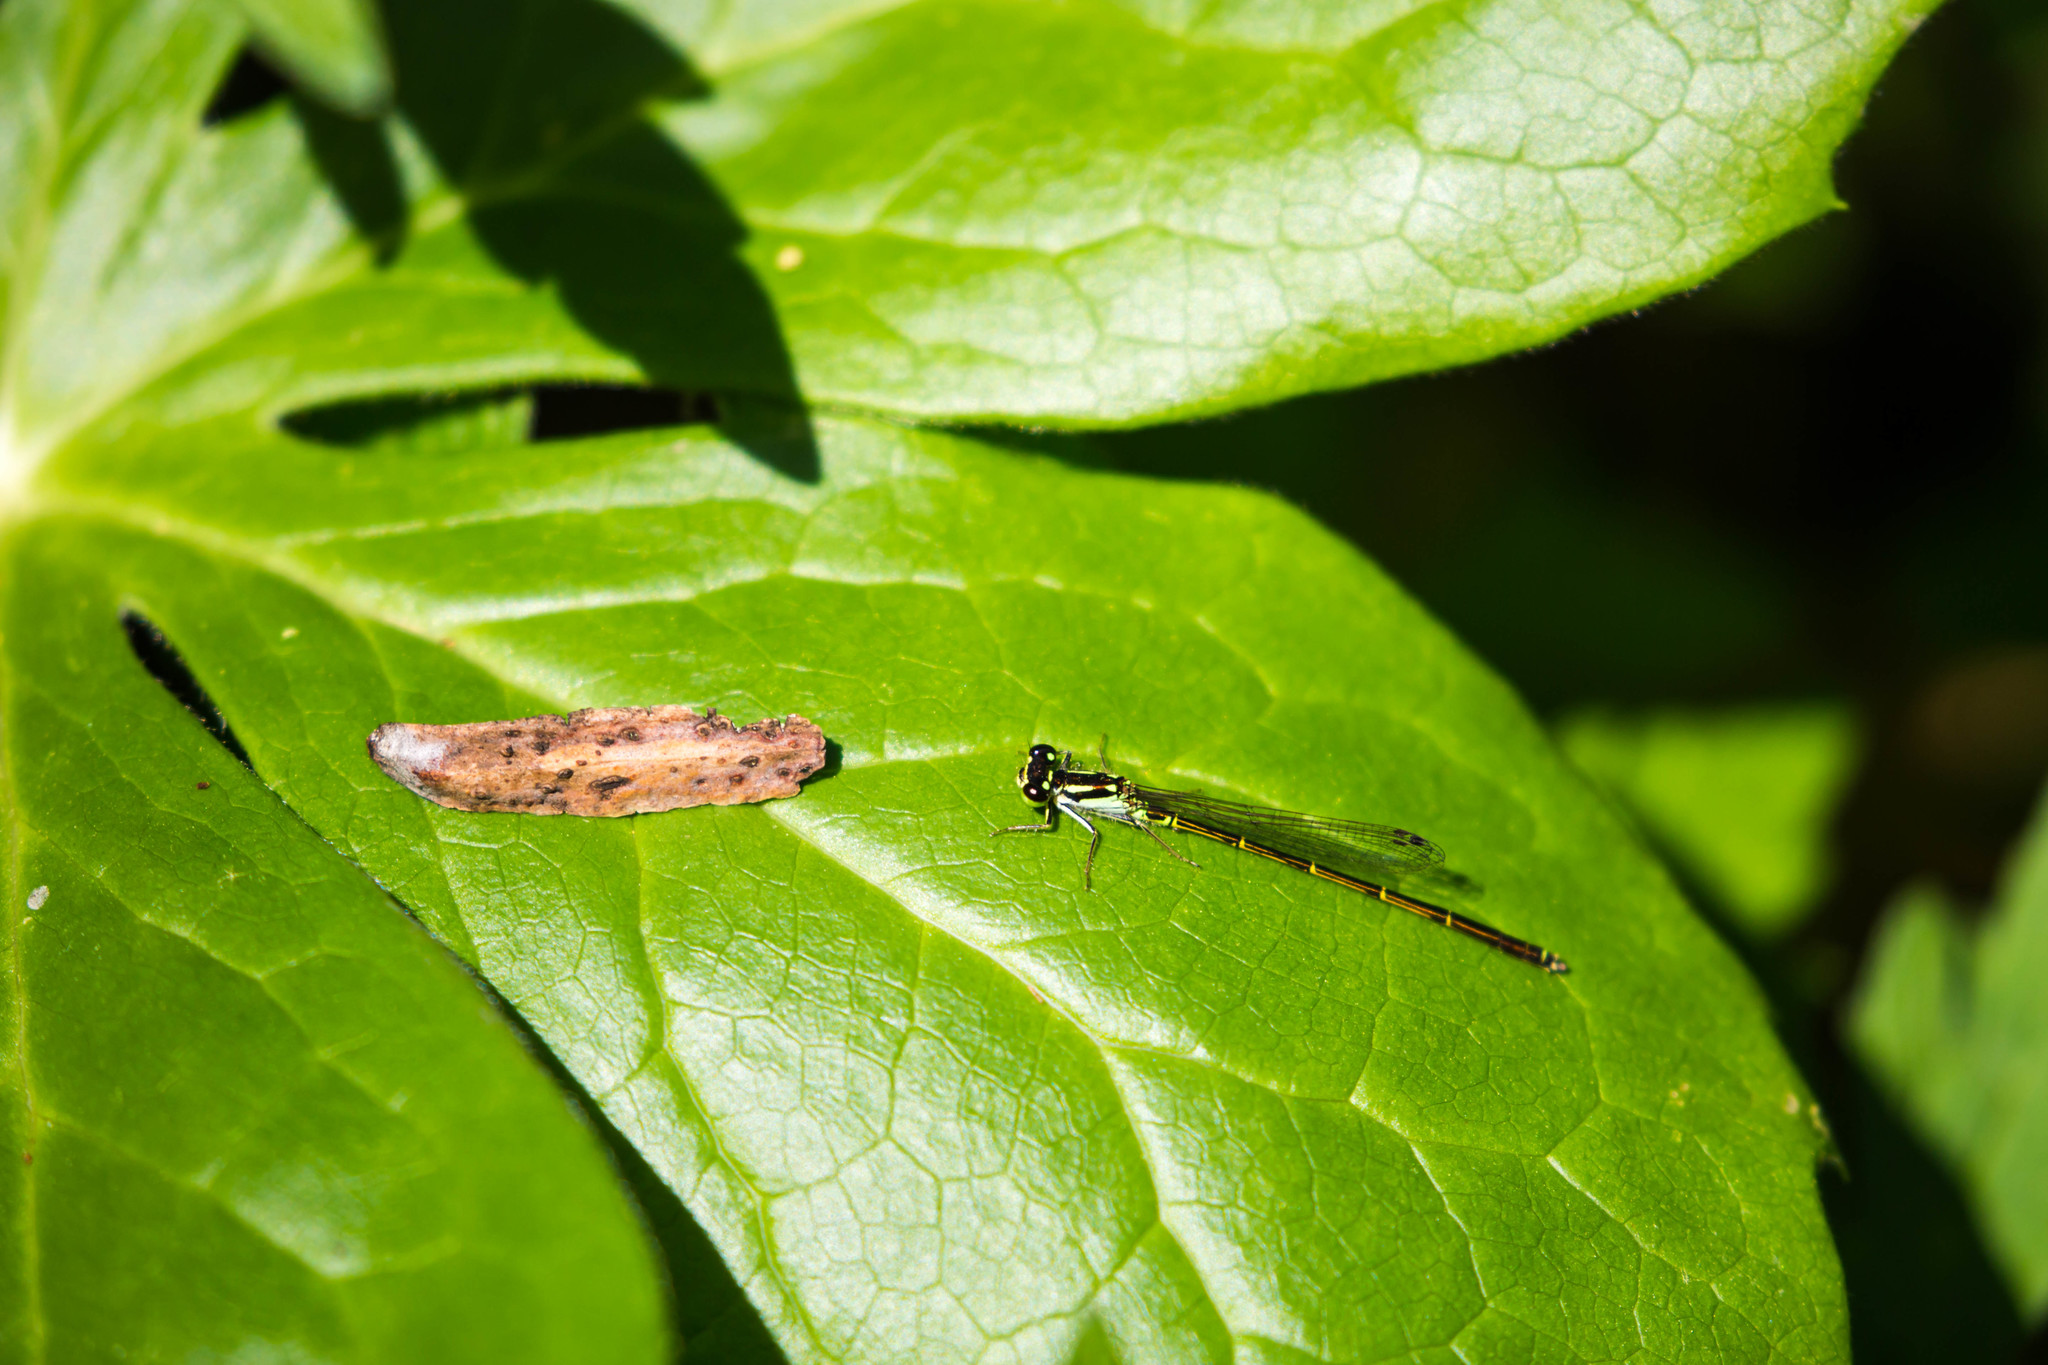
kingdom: Animalia
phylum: Arthropoda
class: Insecta
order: Odonata
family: Coenagrionidae
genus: Ischnura
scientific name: Ischnura posita
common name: Fragile forktail
